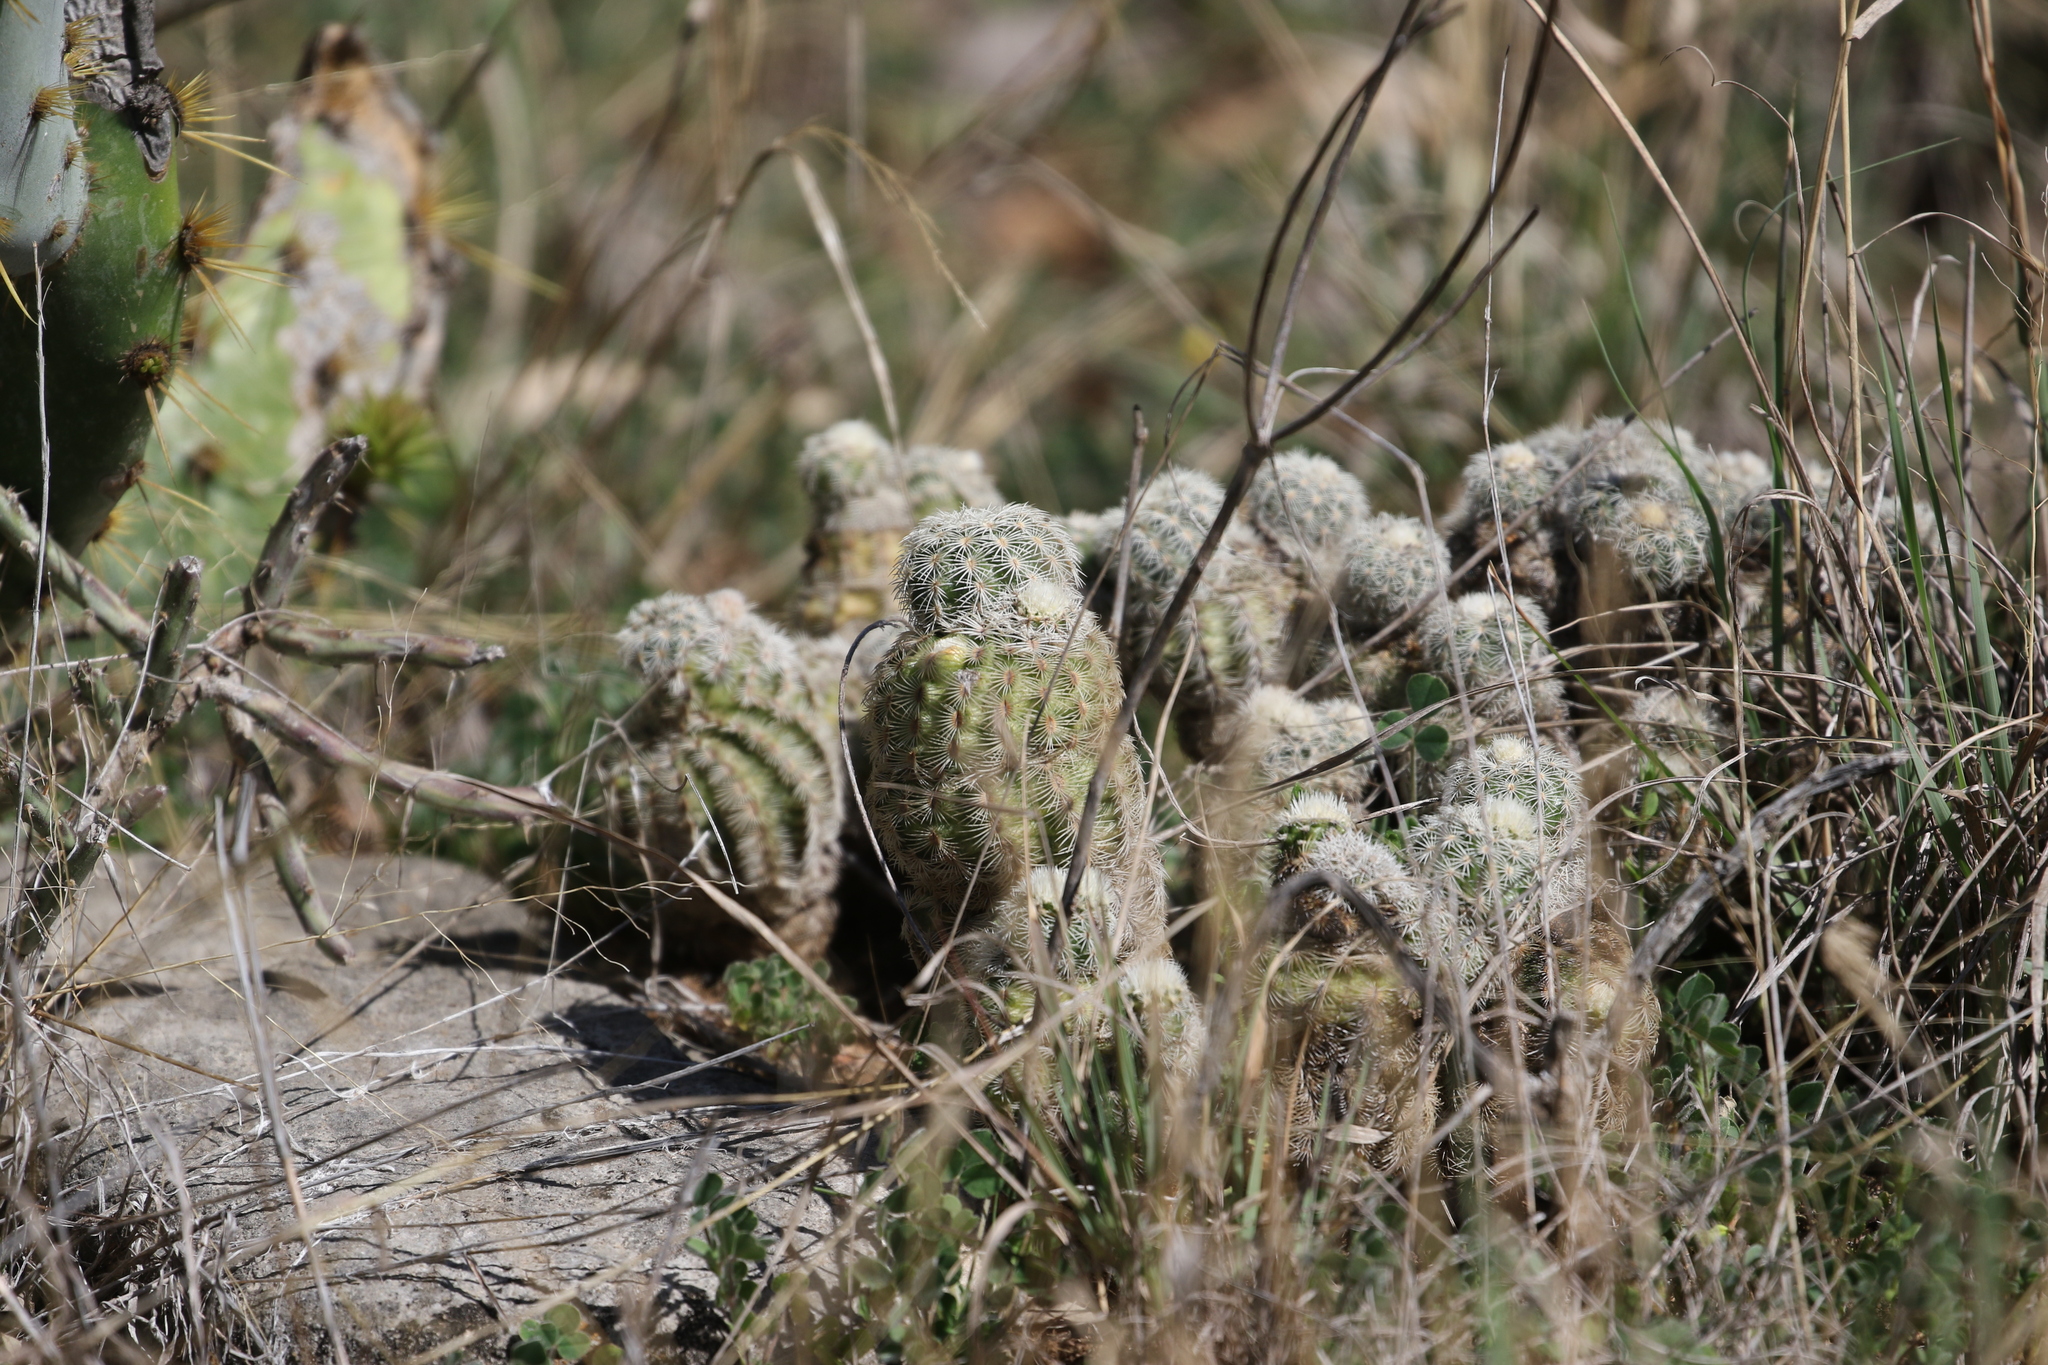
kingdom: Plantae
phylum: Tracheophyta
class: Magnoliopsida
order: Caryophyllales
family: Cactaceae
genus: Echinocereus
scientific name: Echinocereus reichenbachii
